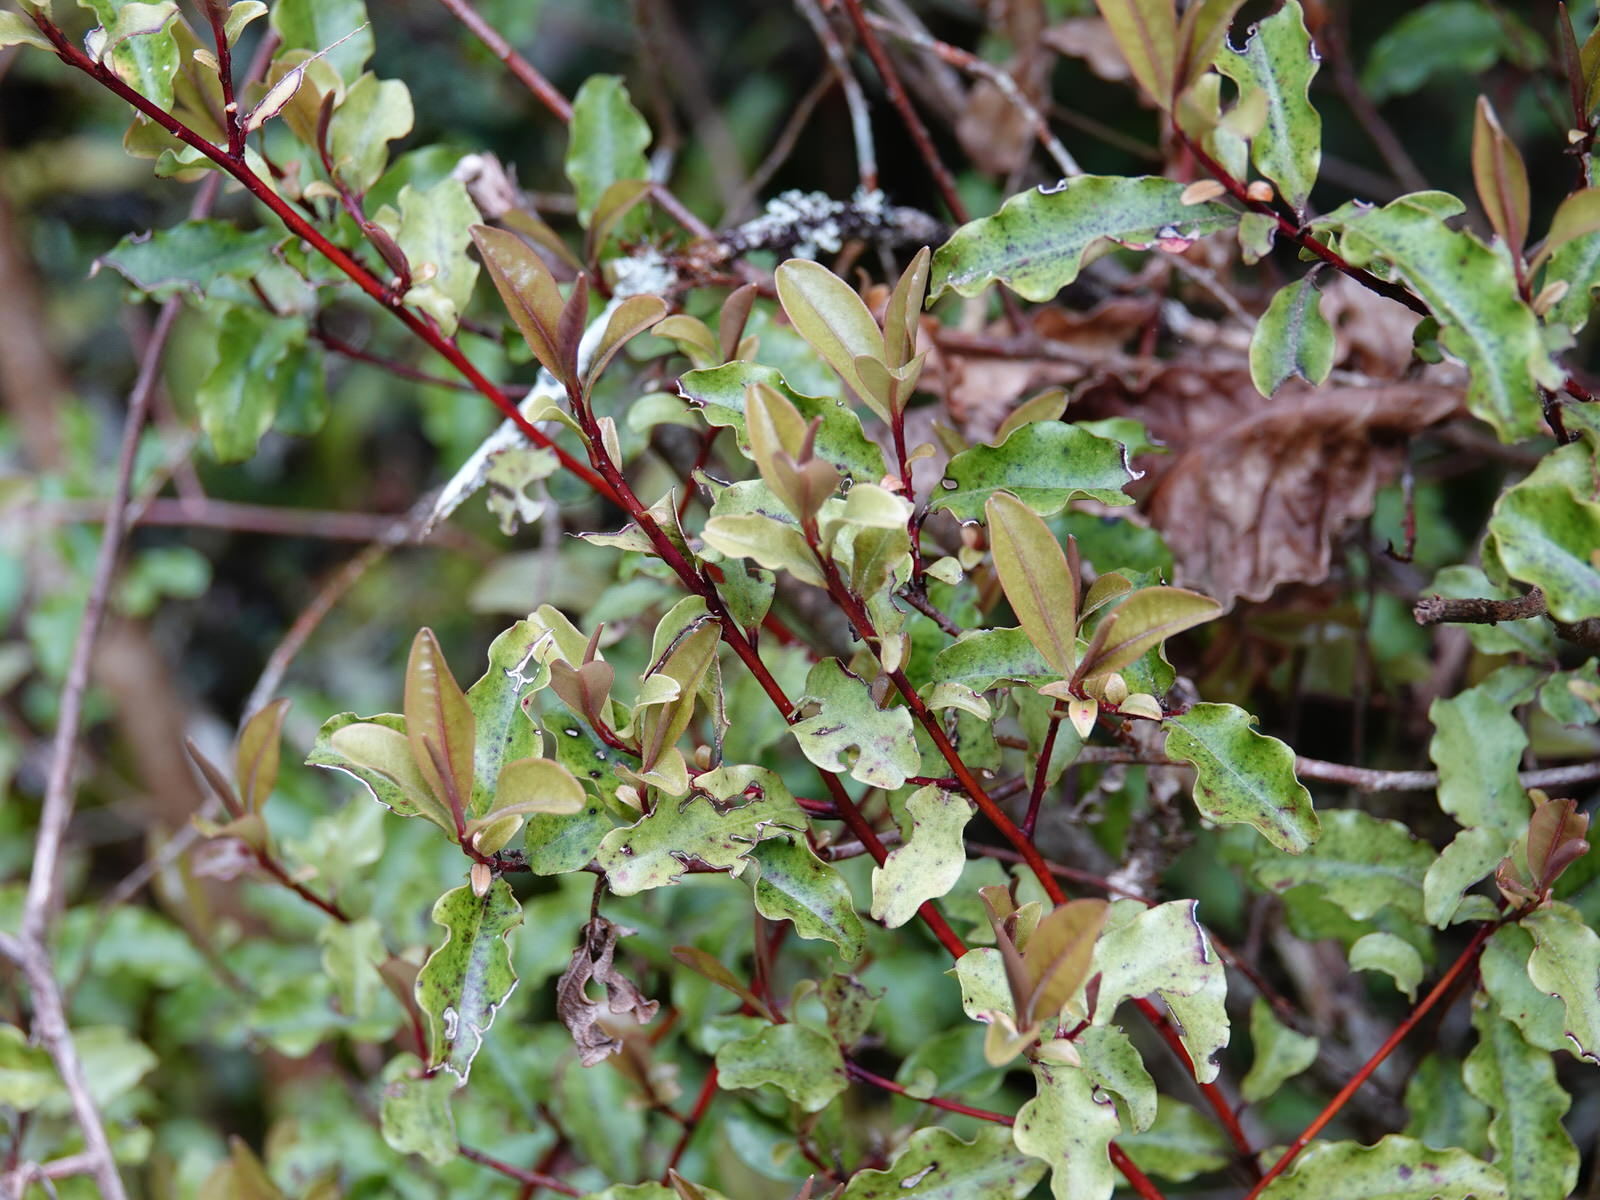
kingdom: Plantae
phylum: Tracheophyta
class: Magnoliopsida
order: Ericales
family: Primulaceae
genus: Myrsine
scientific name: Myrsine australis
